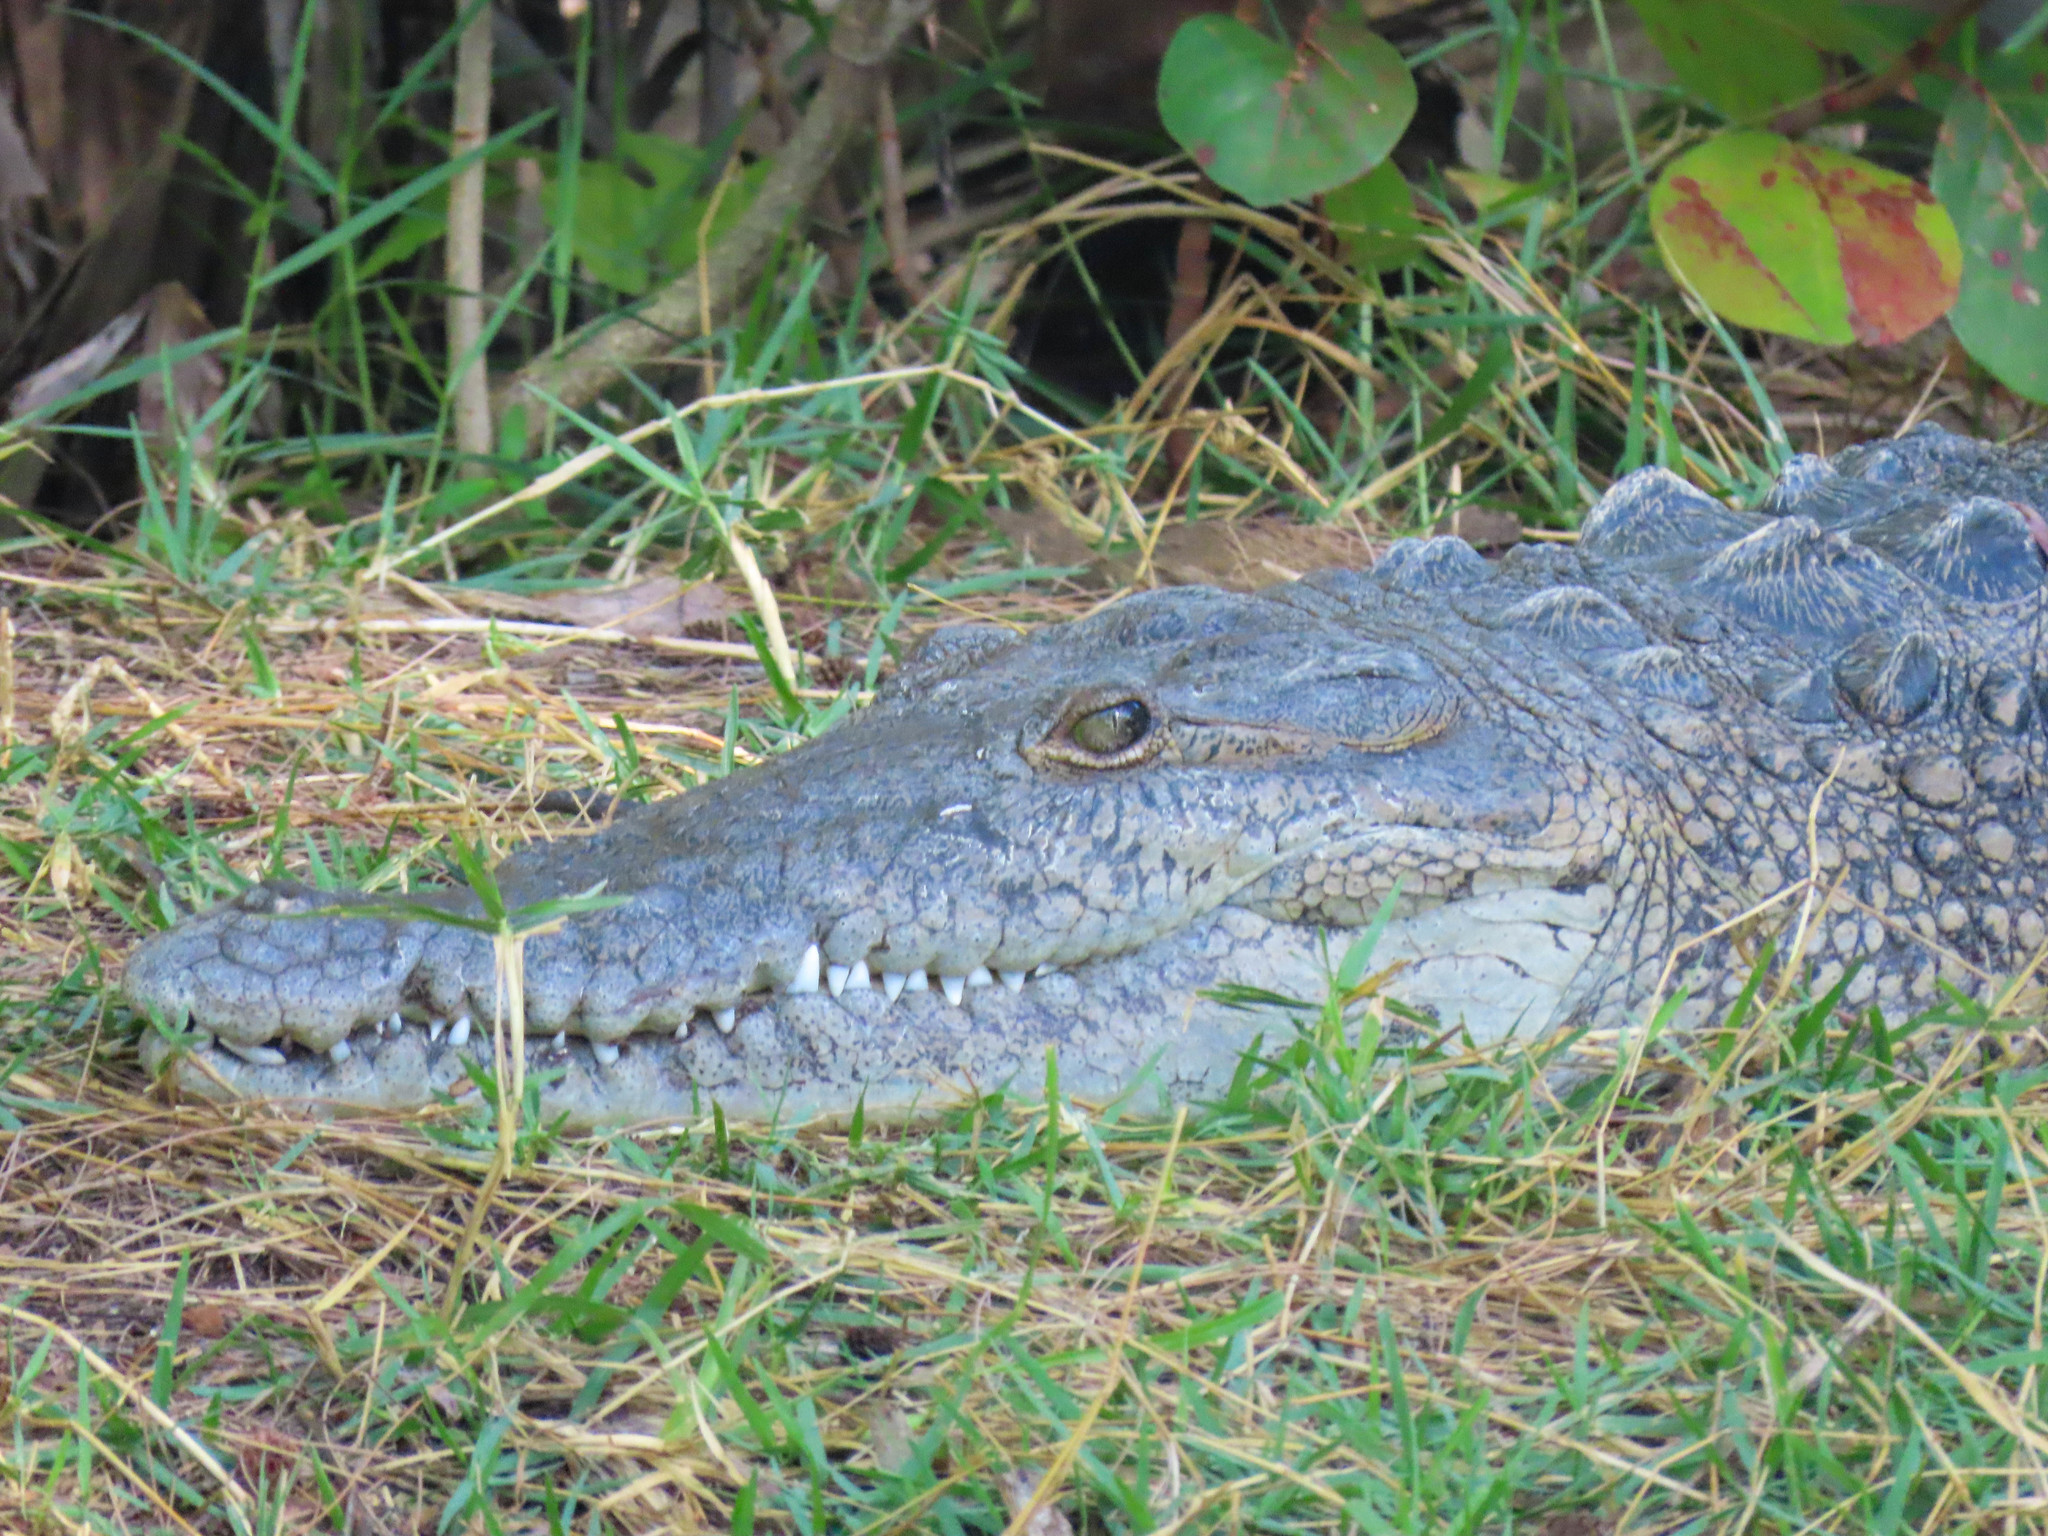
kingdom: Animalia
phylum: Chordata
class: Crocodylia
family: Crocodylidae
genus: Crocodylus
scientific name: Crocodylus acutus
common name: American crocodile
